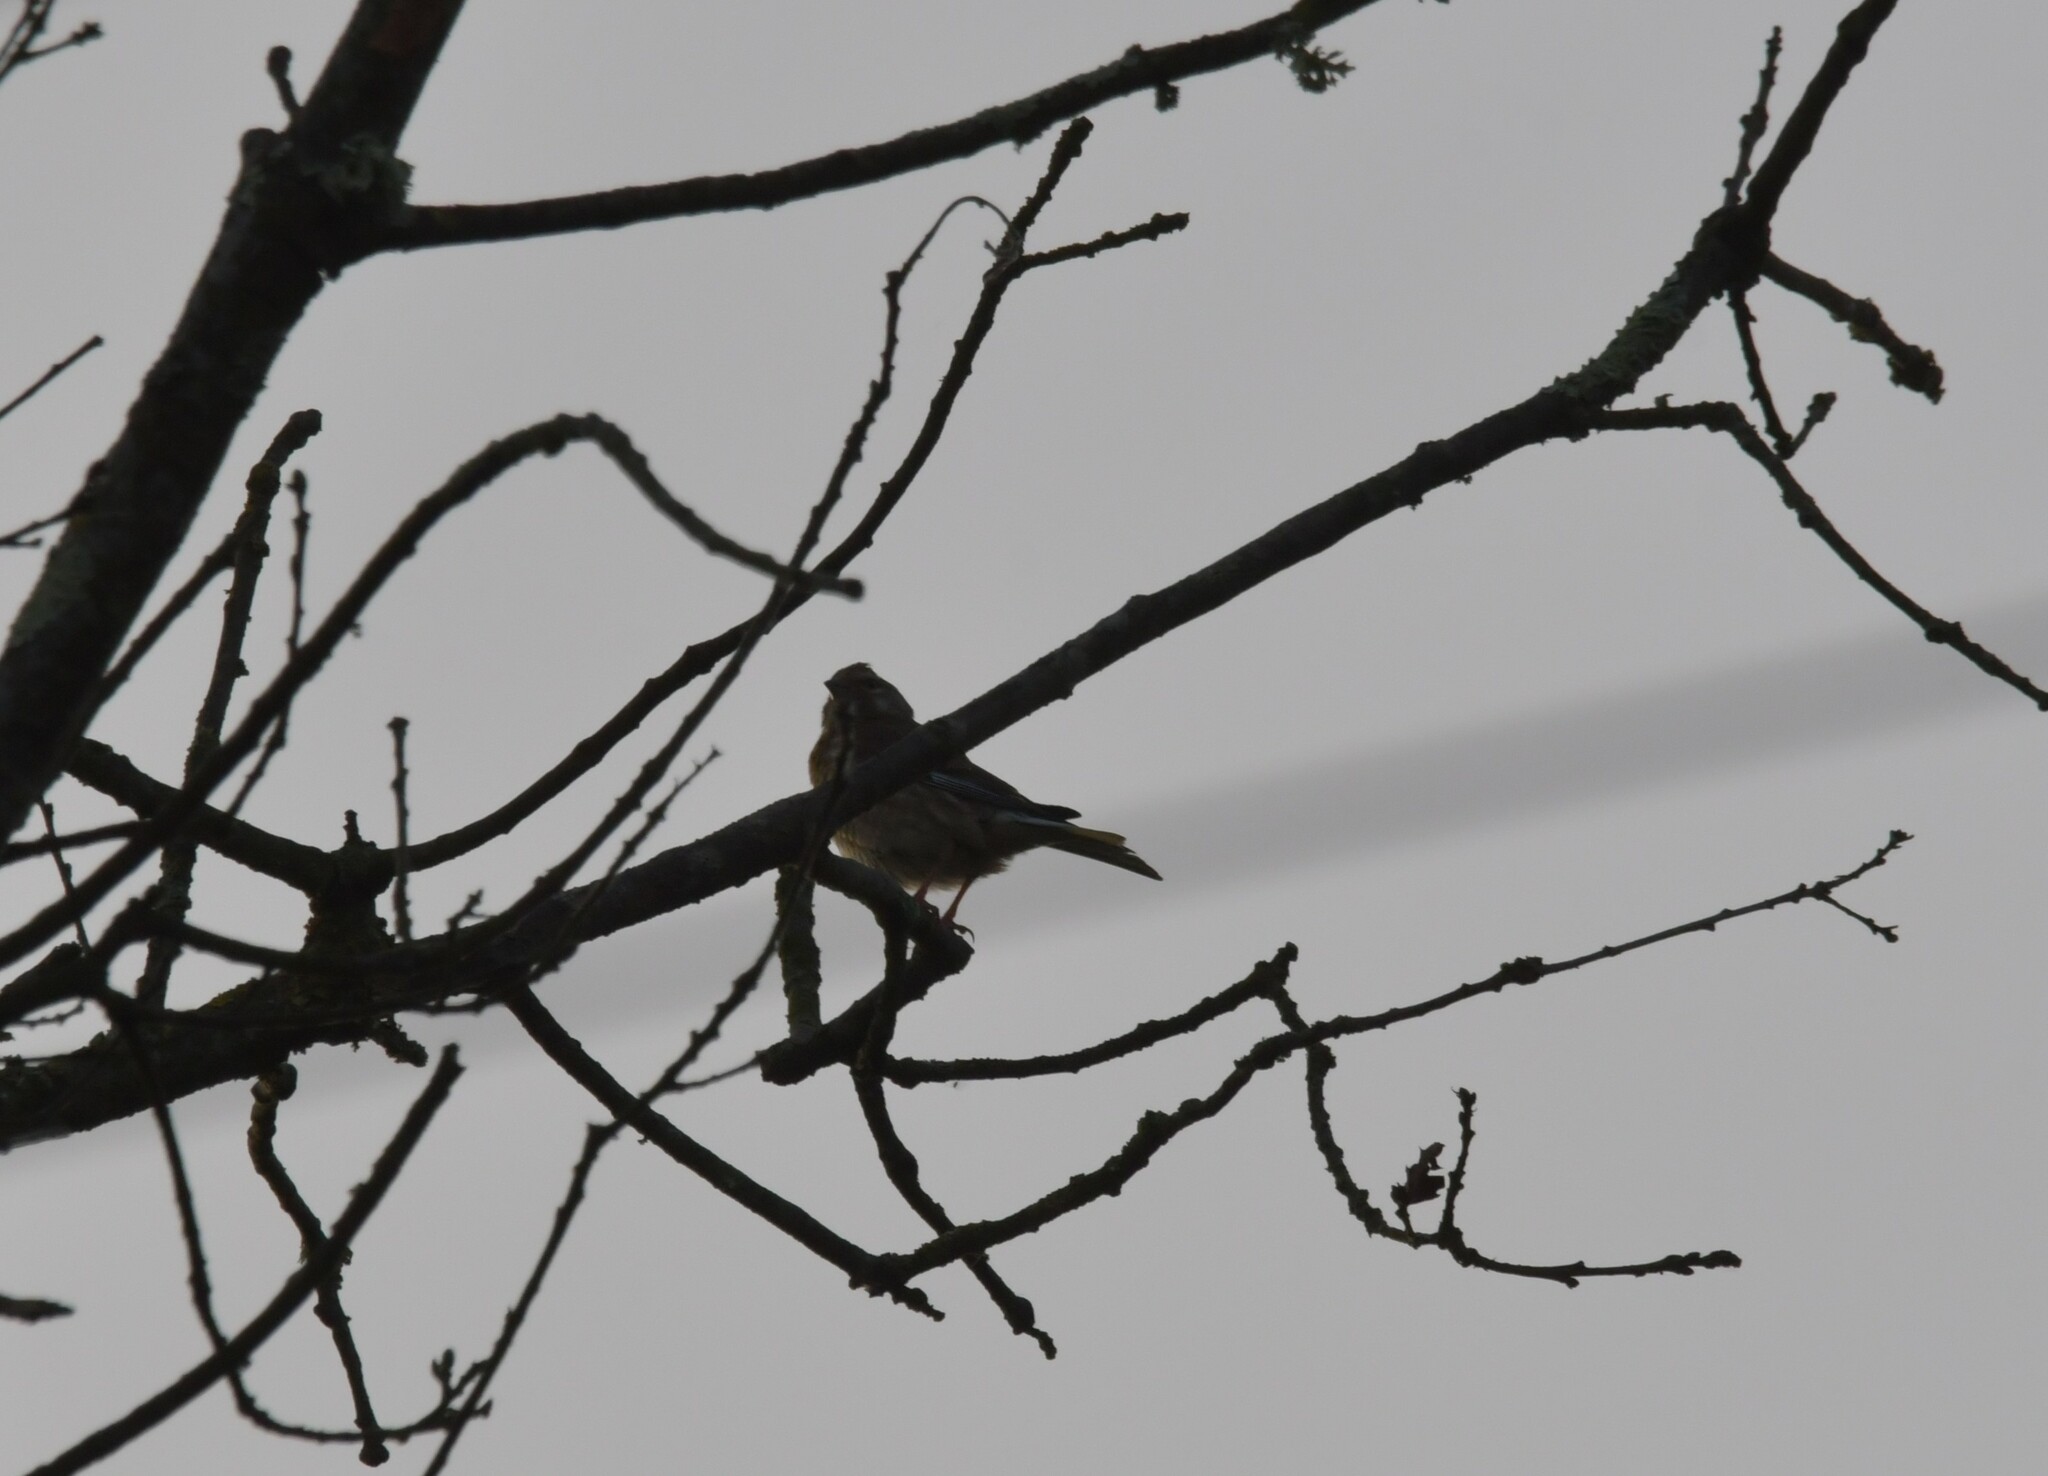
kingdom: Animalia
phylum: Chordata
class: Aves
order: Passeriformes
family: Fringillidae
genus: Linaria
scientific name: Linaria cannabina
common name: Common linnet
